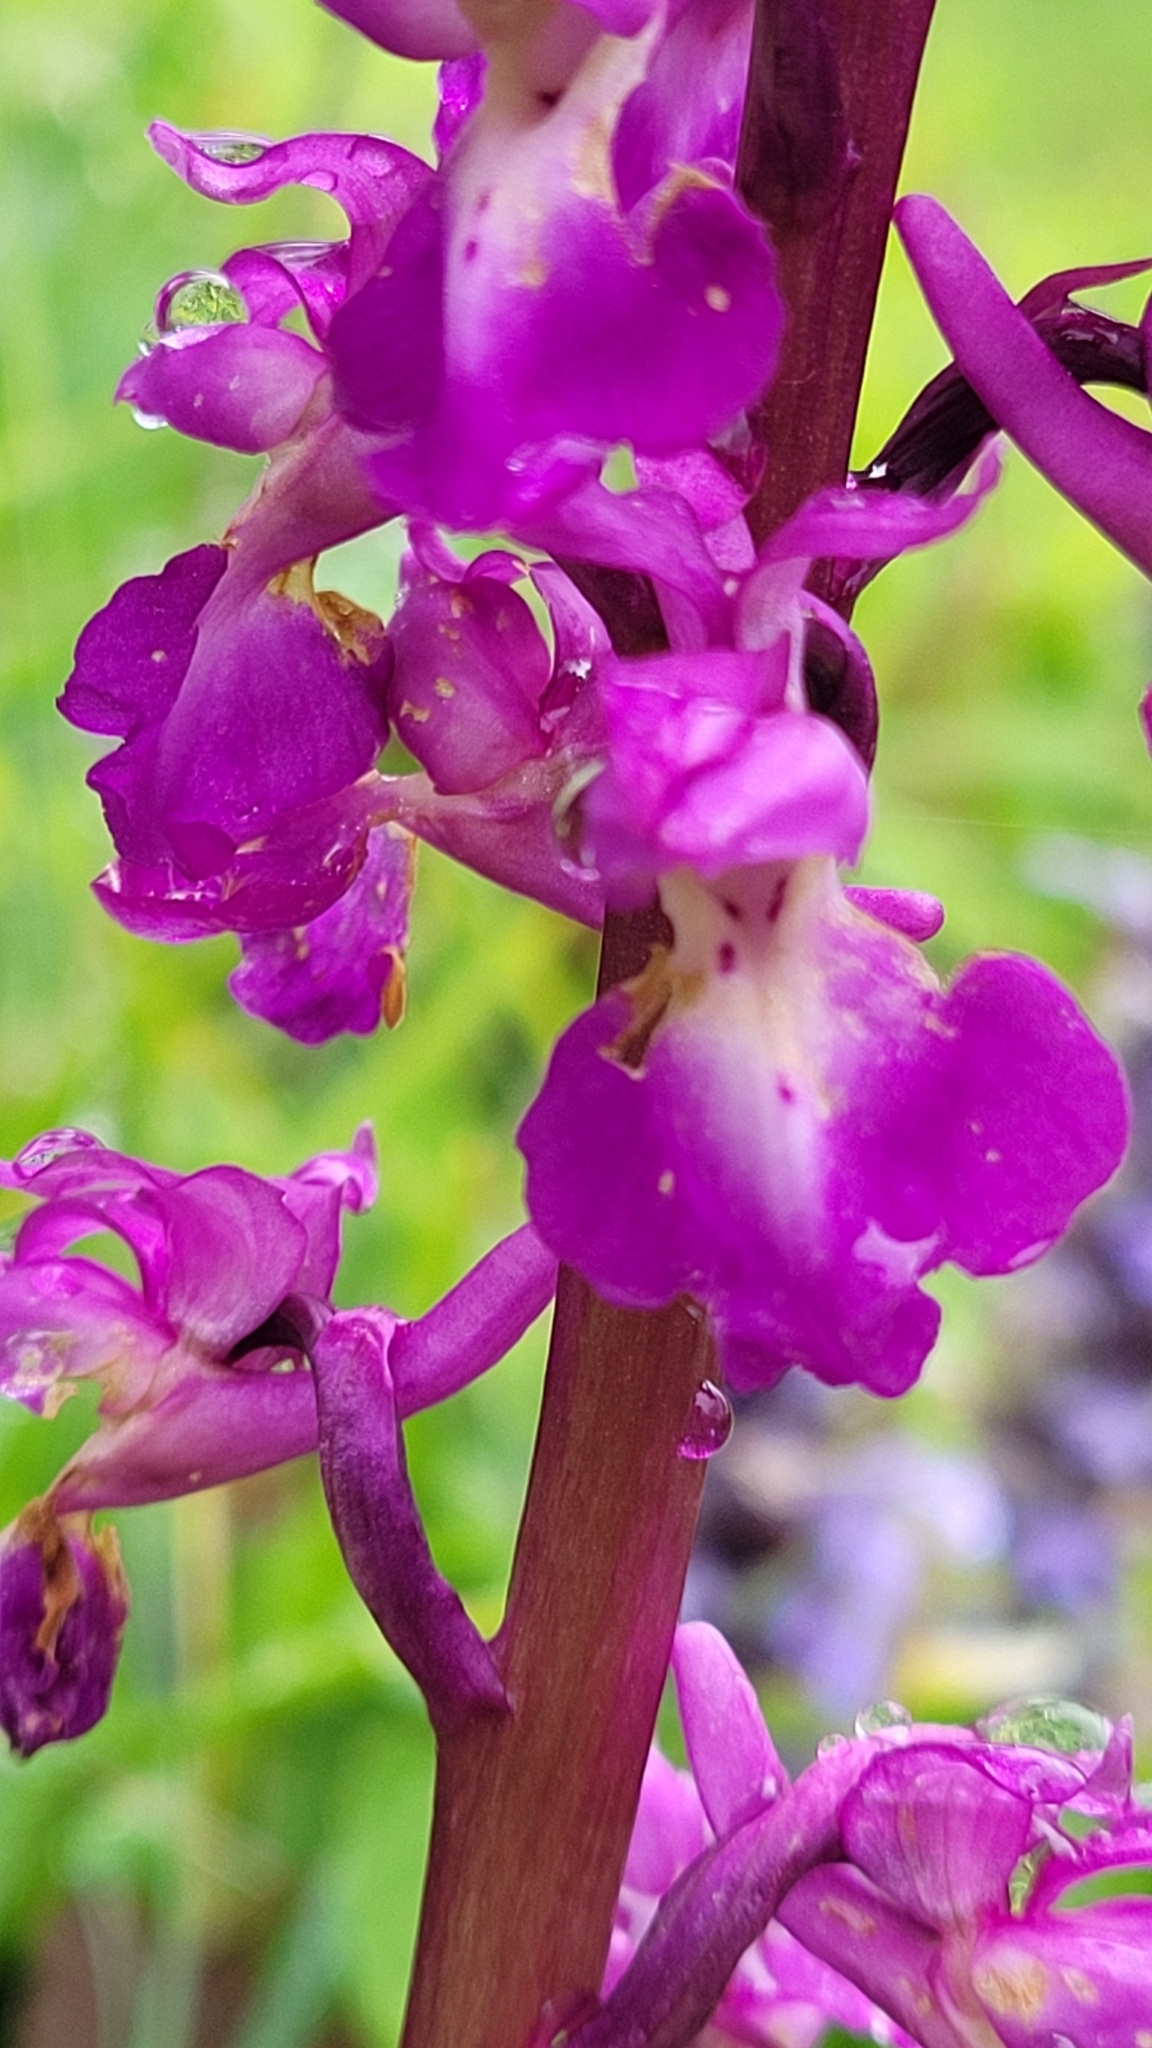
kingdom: Plantae
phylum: Tracheophyta
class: Liliopsida
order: Asparagales
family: Orchidaceae
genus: Orchis
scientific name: Orchis mascula
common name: Early-purple orchid
